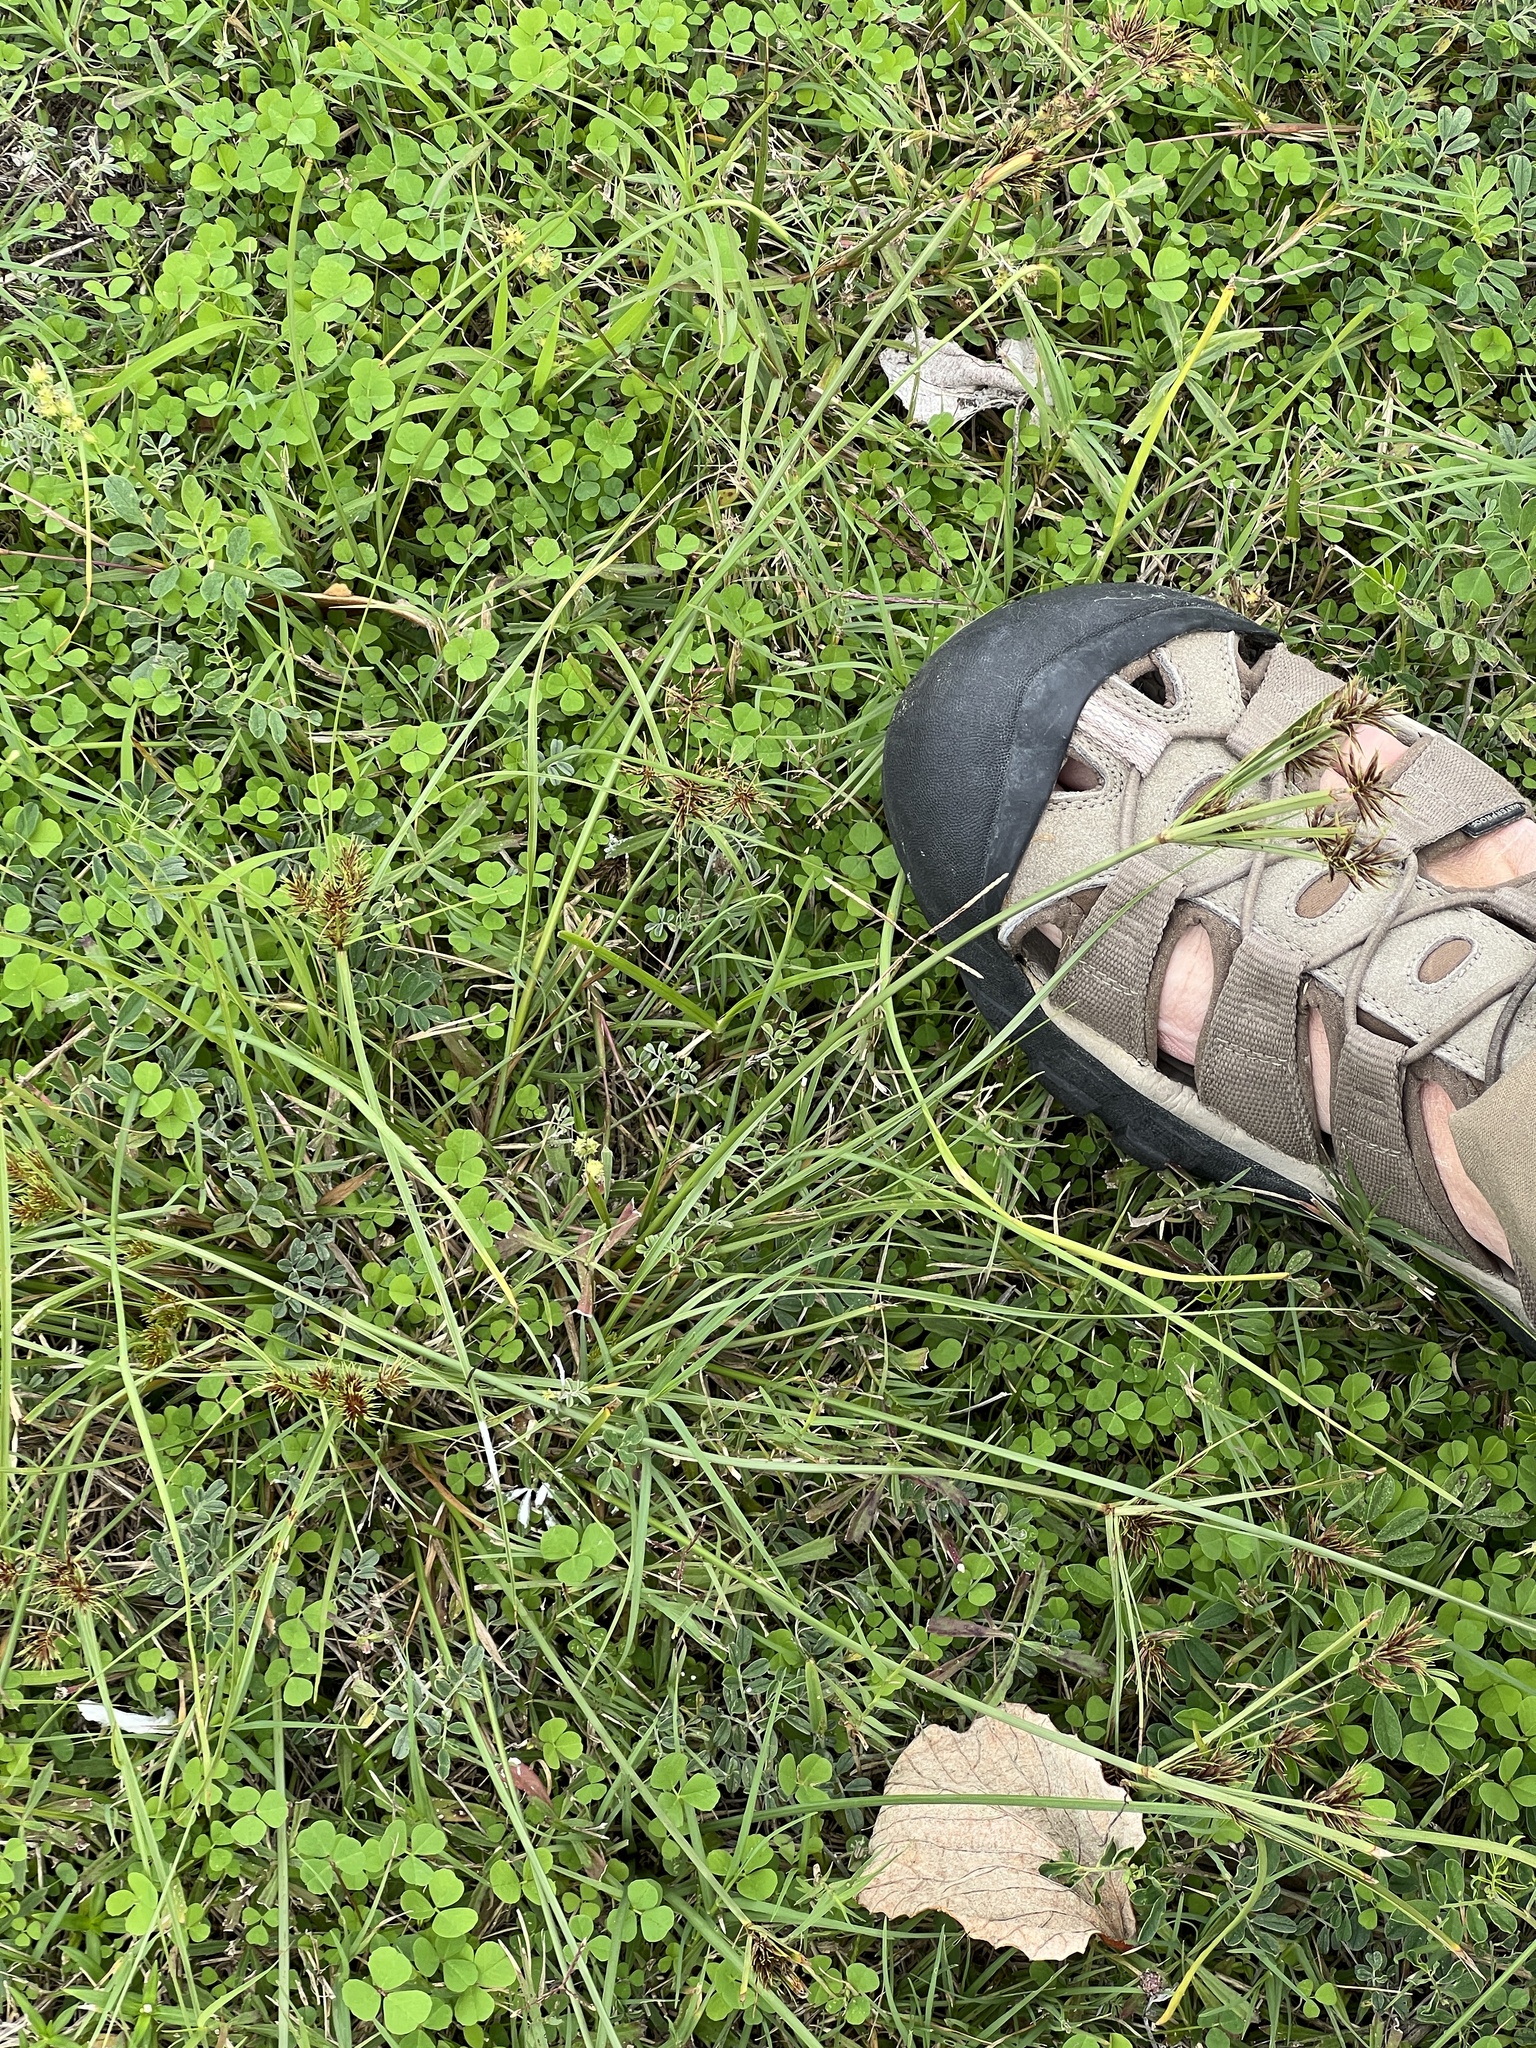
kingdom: Plantae
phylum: Tracheophyta
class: Liliopsida
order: Poales
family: Cyperaceae
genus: Cyperus
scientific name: Cyperus ochraceus
